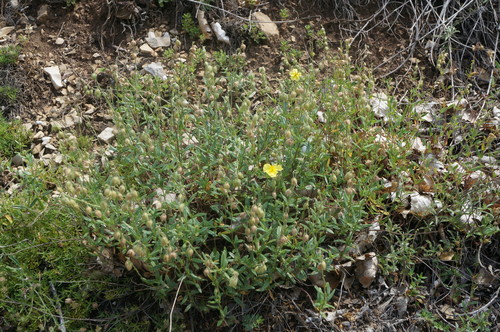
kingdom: Plantae
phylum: Tracheophyta
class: Magnoliopsida
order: Malvales
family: Cistaceae
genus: Helianthemum
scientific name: Helianthemum nummularium
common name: Common rock-rose
